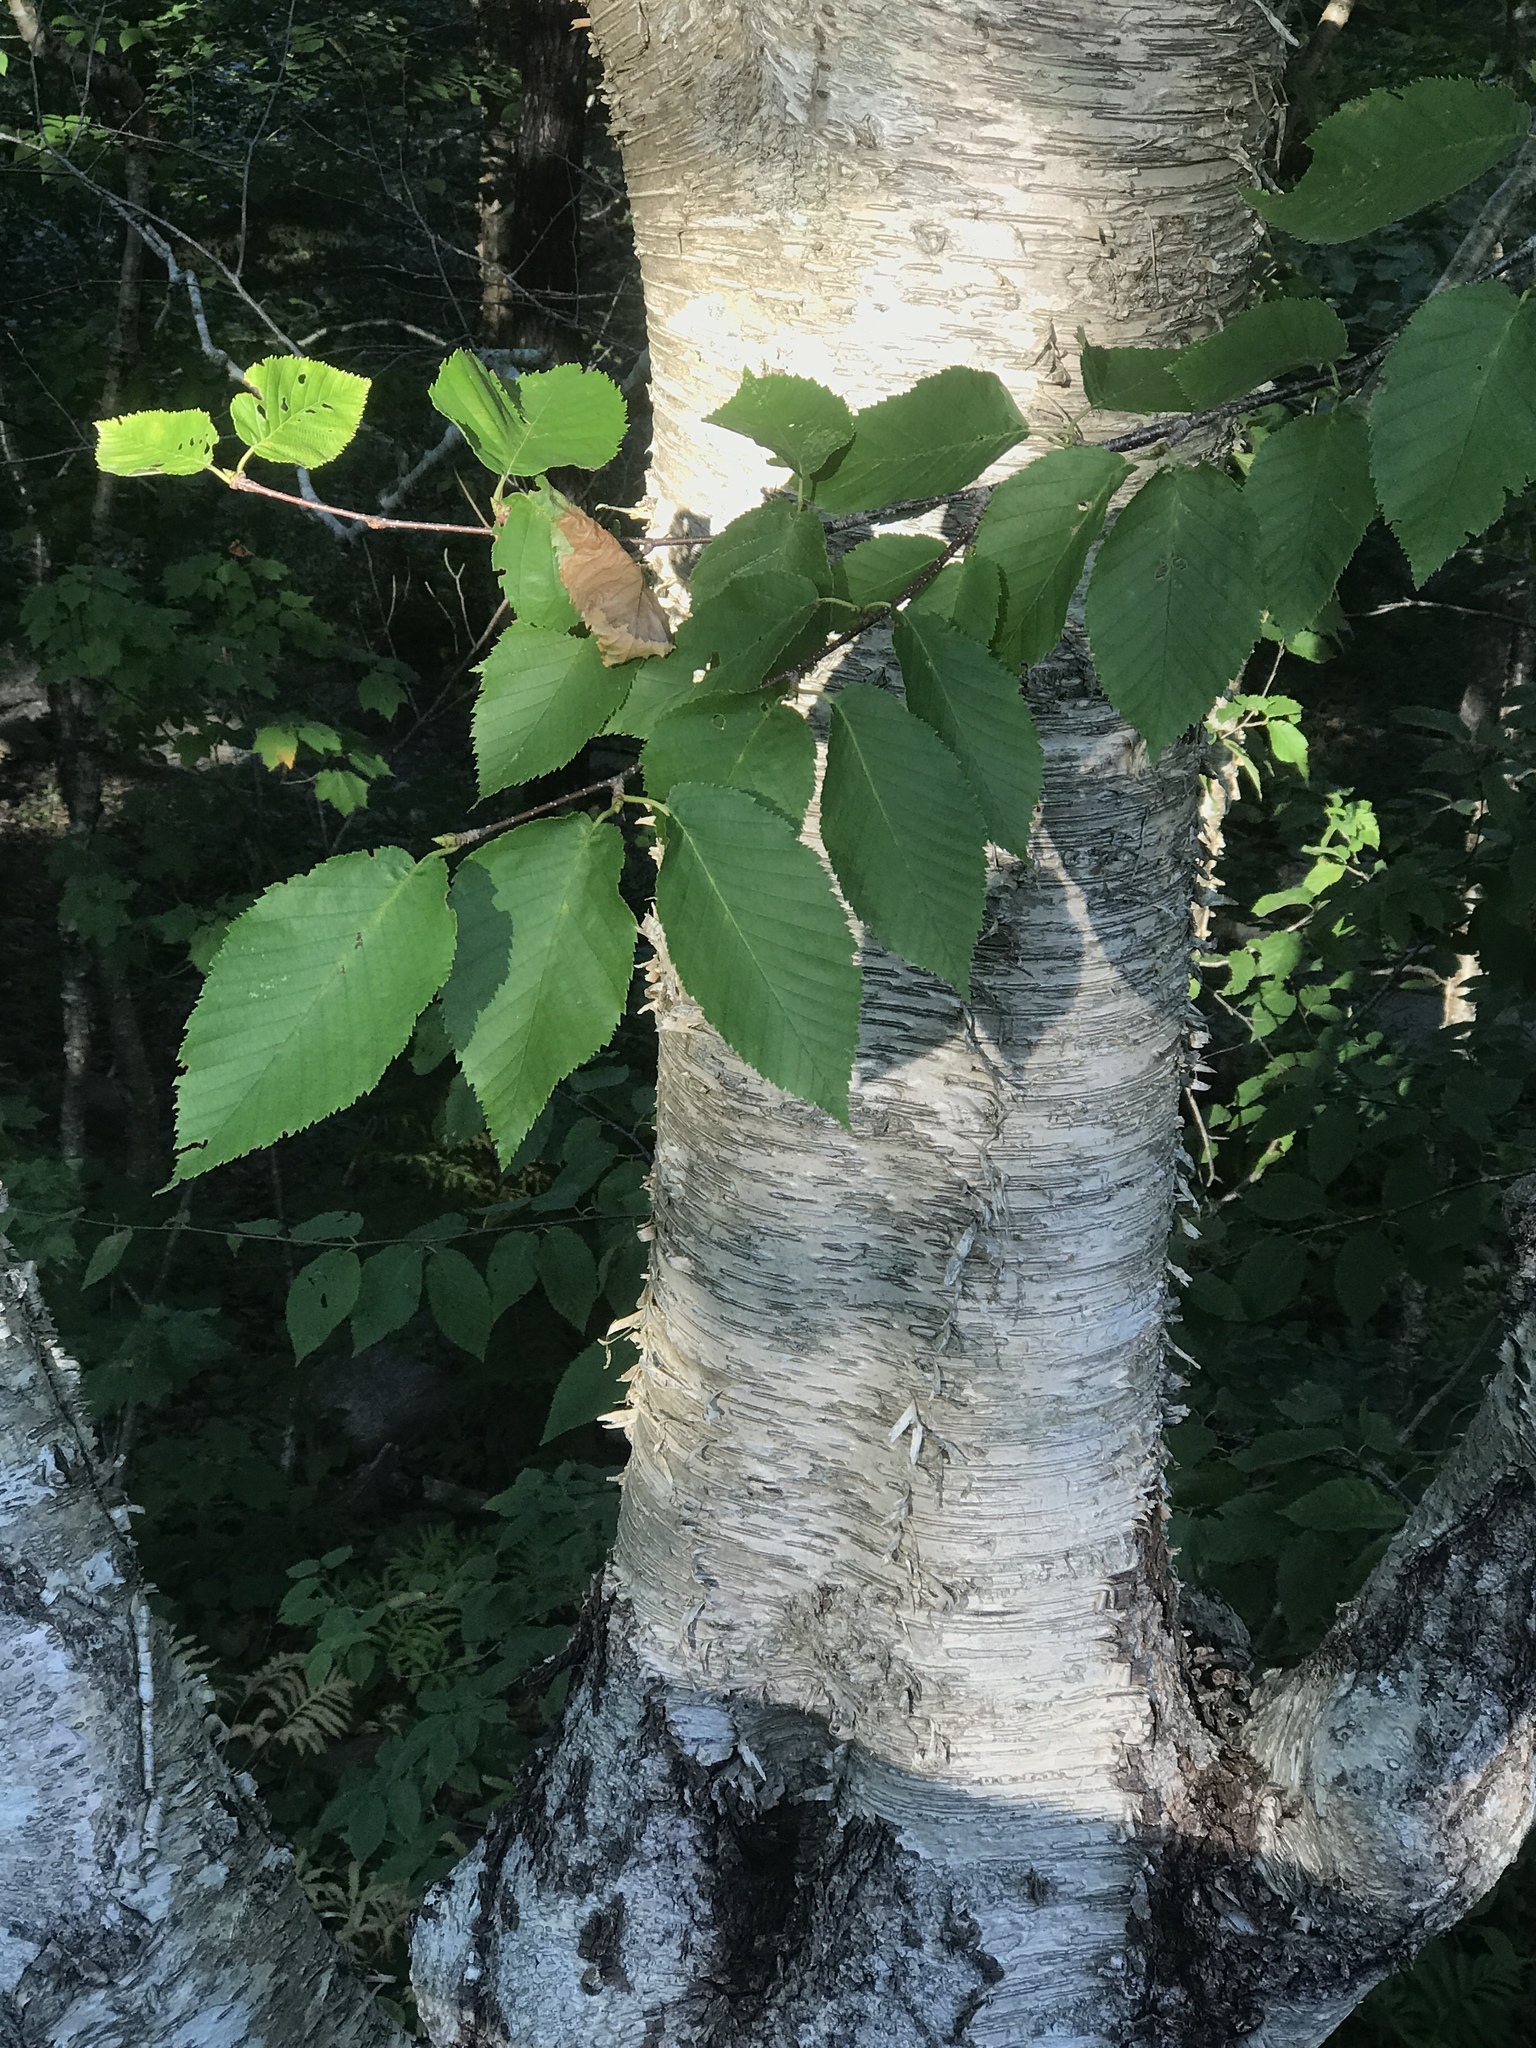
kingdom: Plantae
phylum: Tracheophyta
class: Magnoliopsida
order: Fagales
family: Betulaceae
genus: Betula
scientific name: Betula alleghaniensis
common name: Yellow birch
